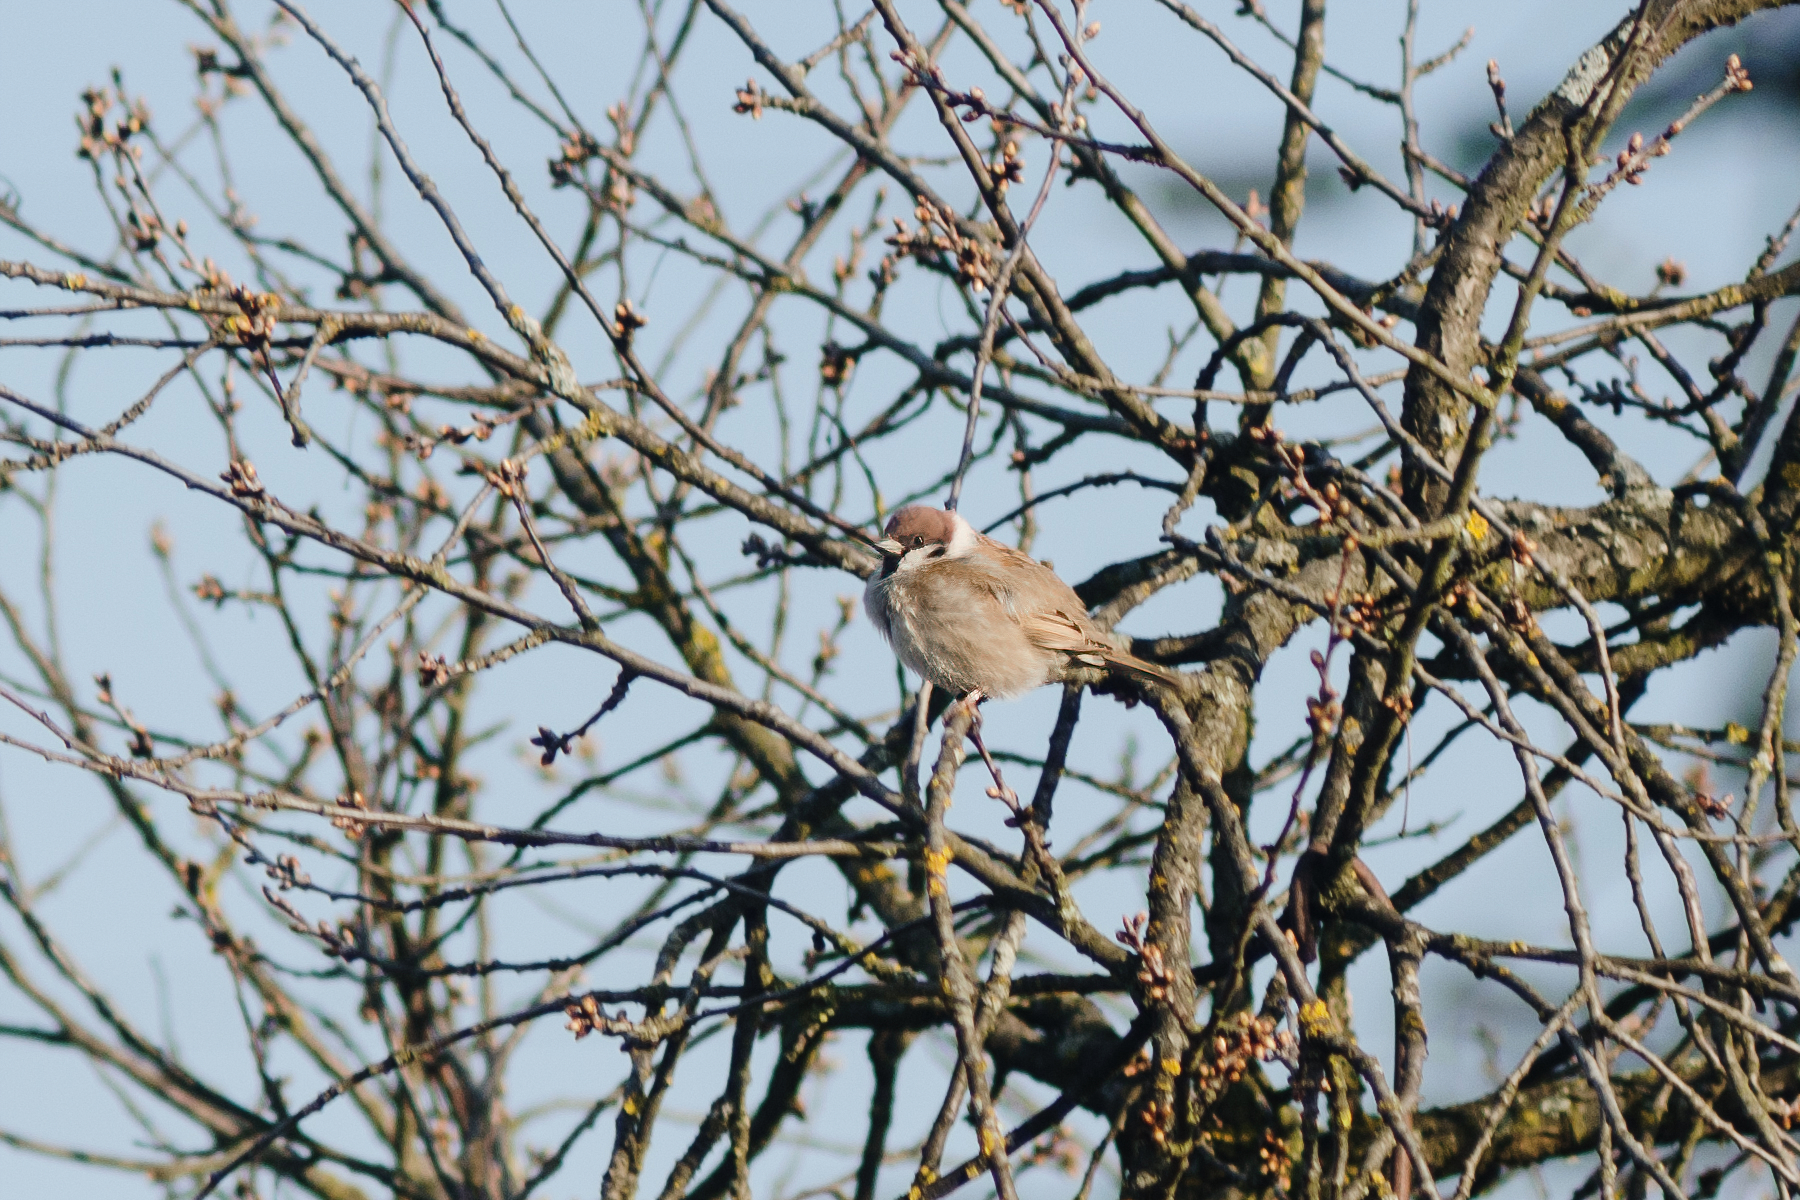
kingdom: Animalia
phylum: Chordata
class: Aves
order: Passeriformes
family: Passeridae
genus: Passer
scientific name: Passer montanus
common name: Eurasian tree sparrow
